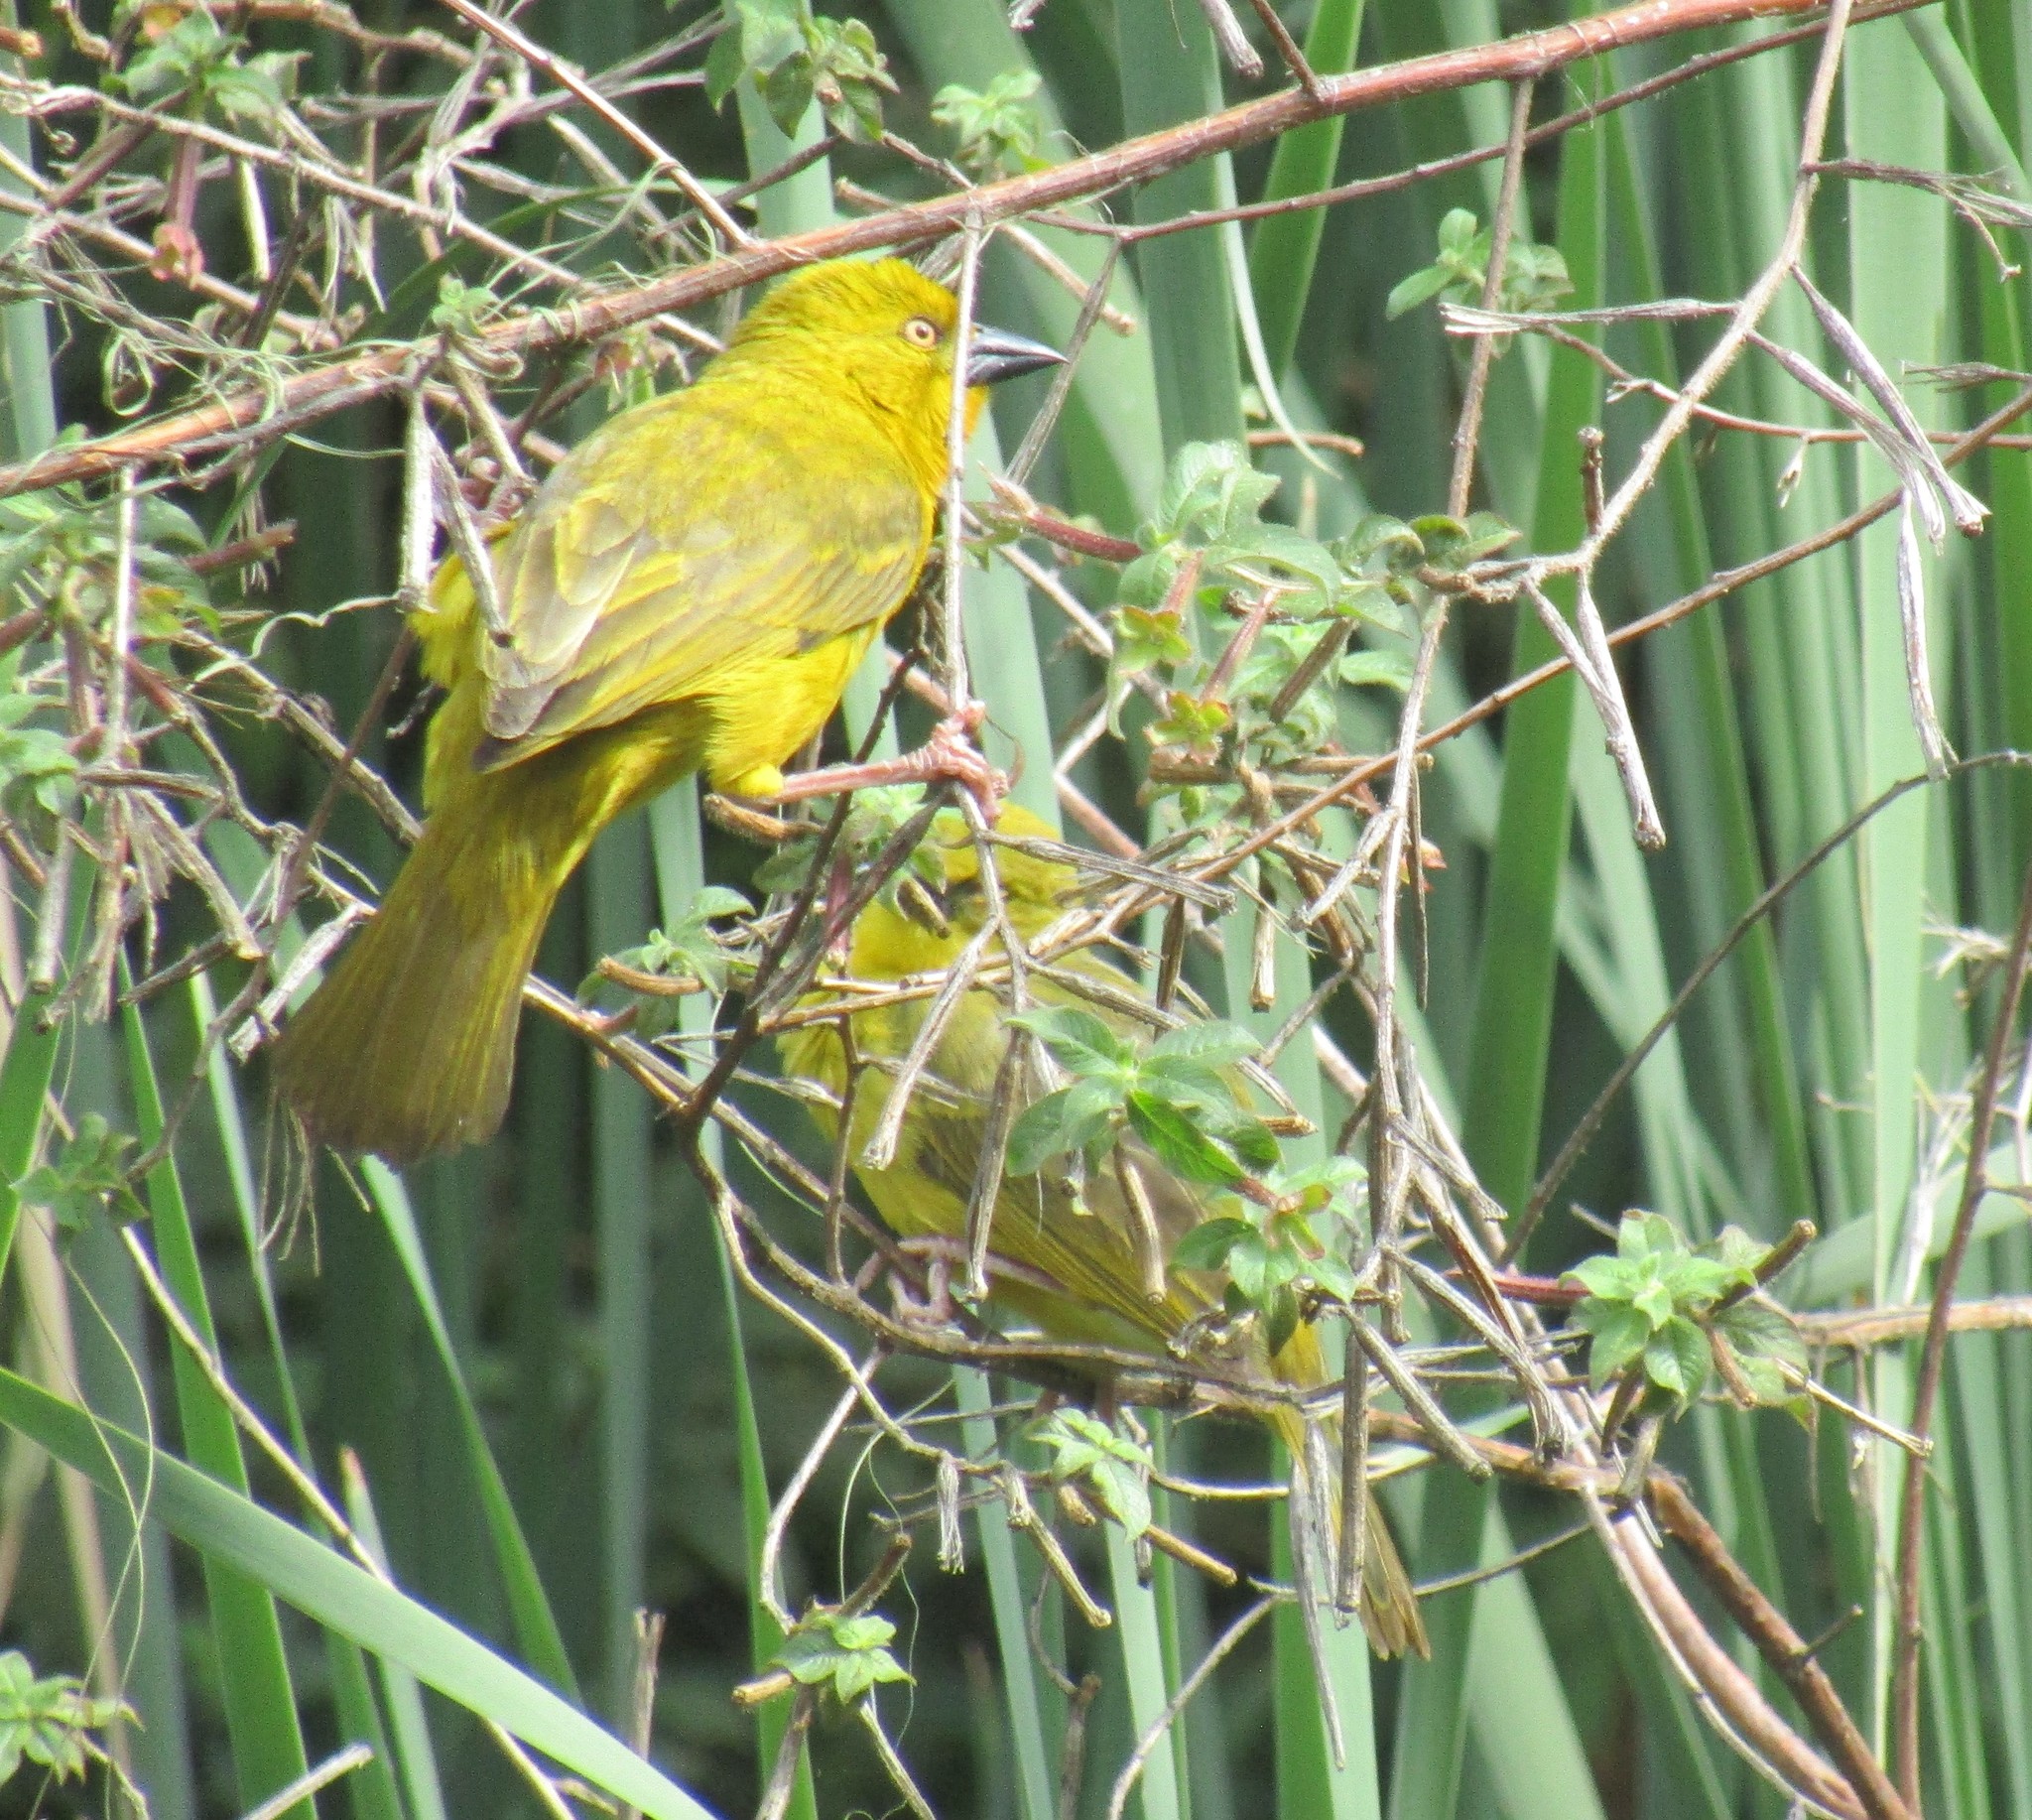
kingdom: Animalia
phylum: Chordata
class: Aves
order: Passeriformes
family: Ploceidae
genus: Ploceus
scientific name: Ploceus xanthops
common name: Holub's golden weaver
